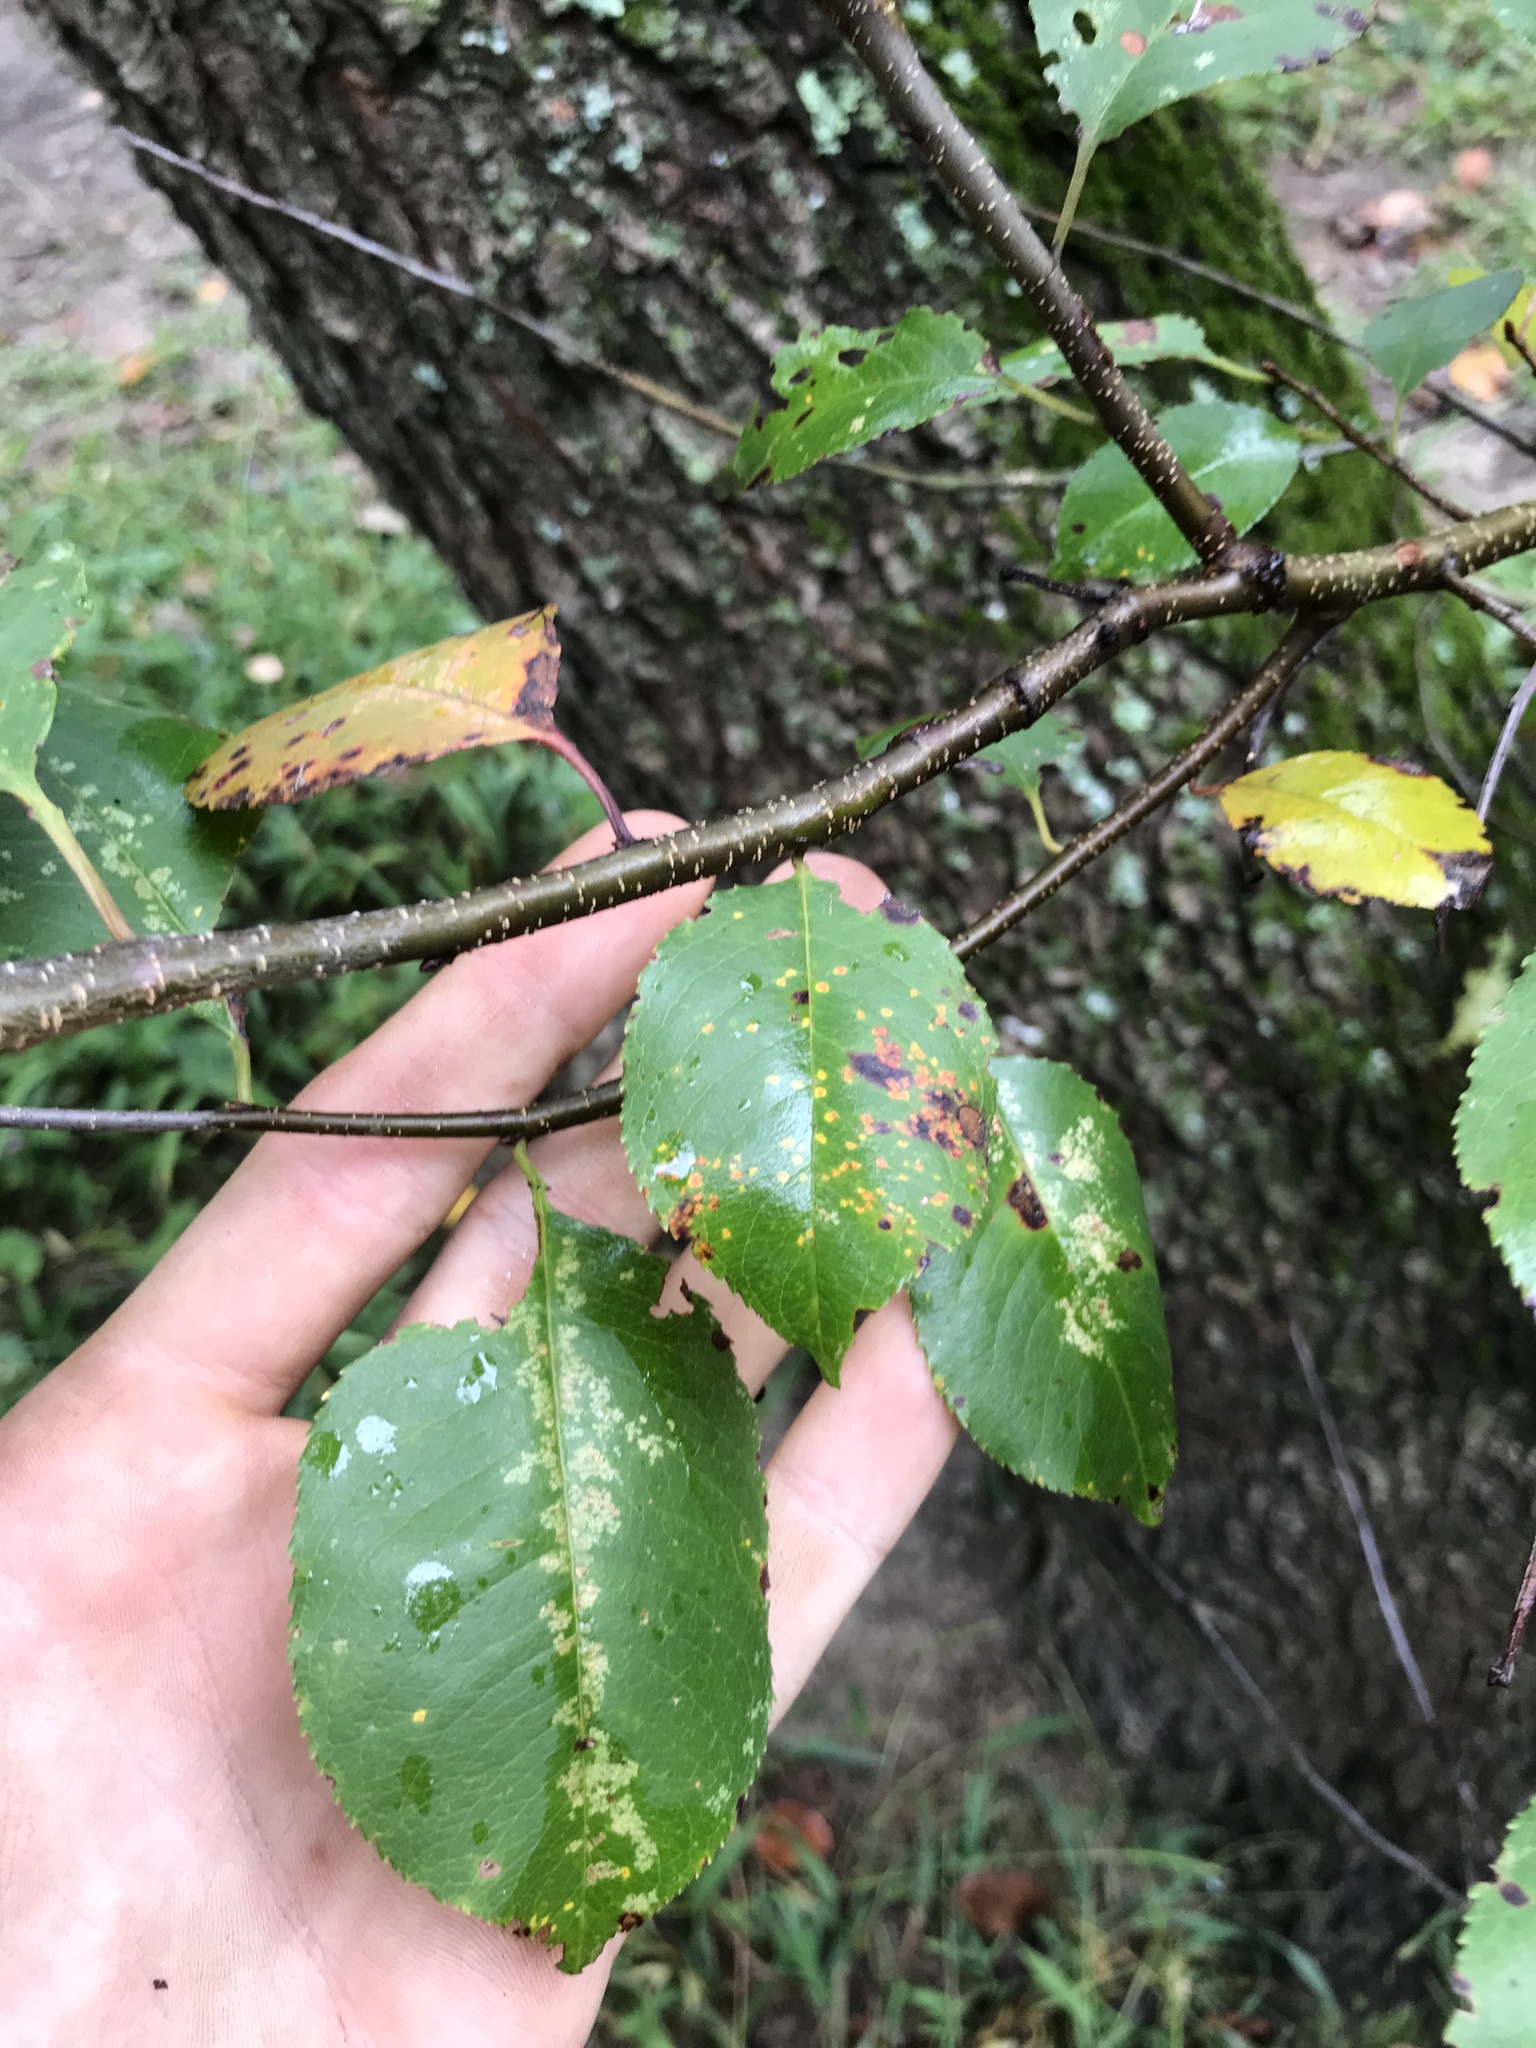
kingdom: Plantae
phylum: Tracheophyta
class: Magnoliopsida
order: Rosales
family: Rosaceae
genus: Prunus
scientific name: Prunus serotina
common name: Black cherry
